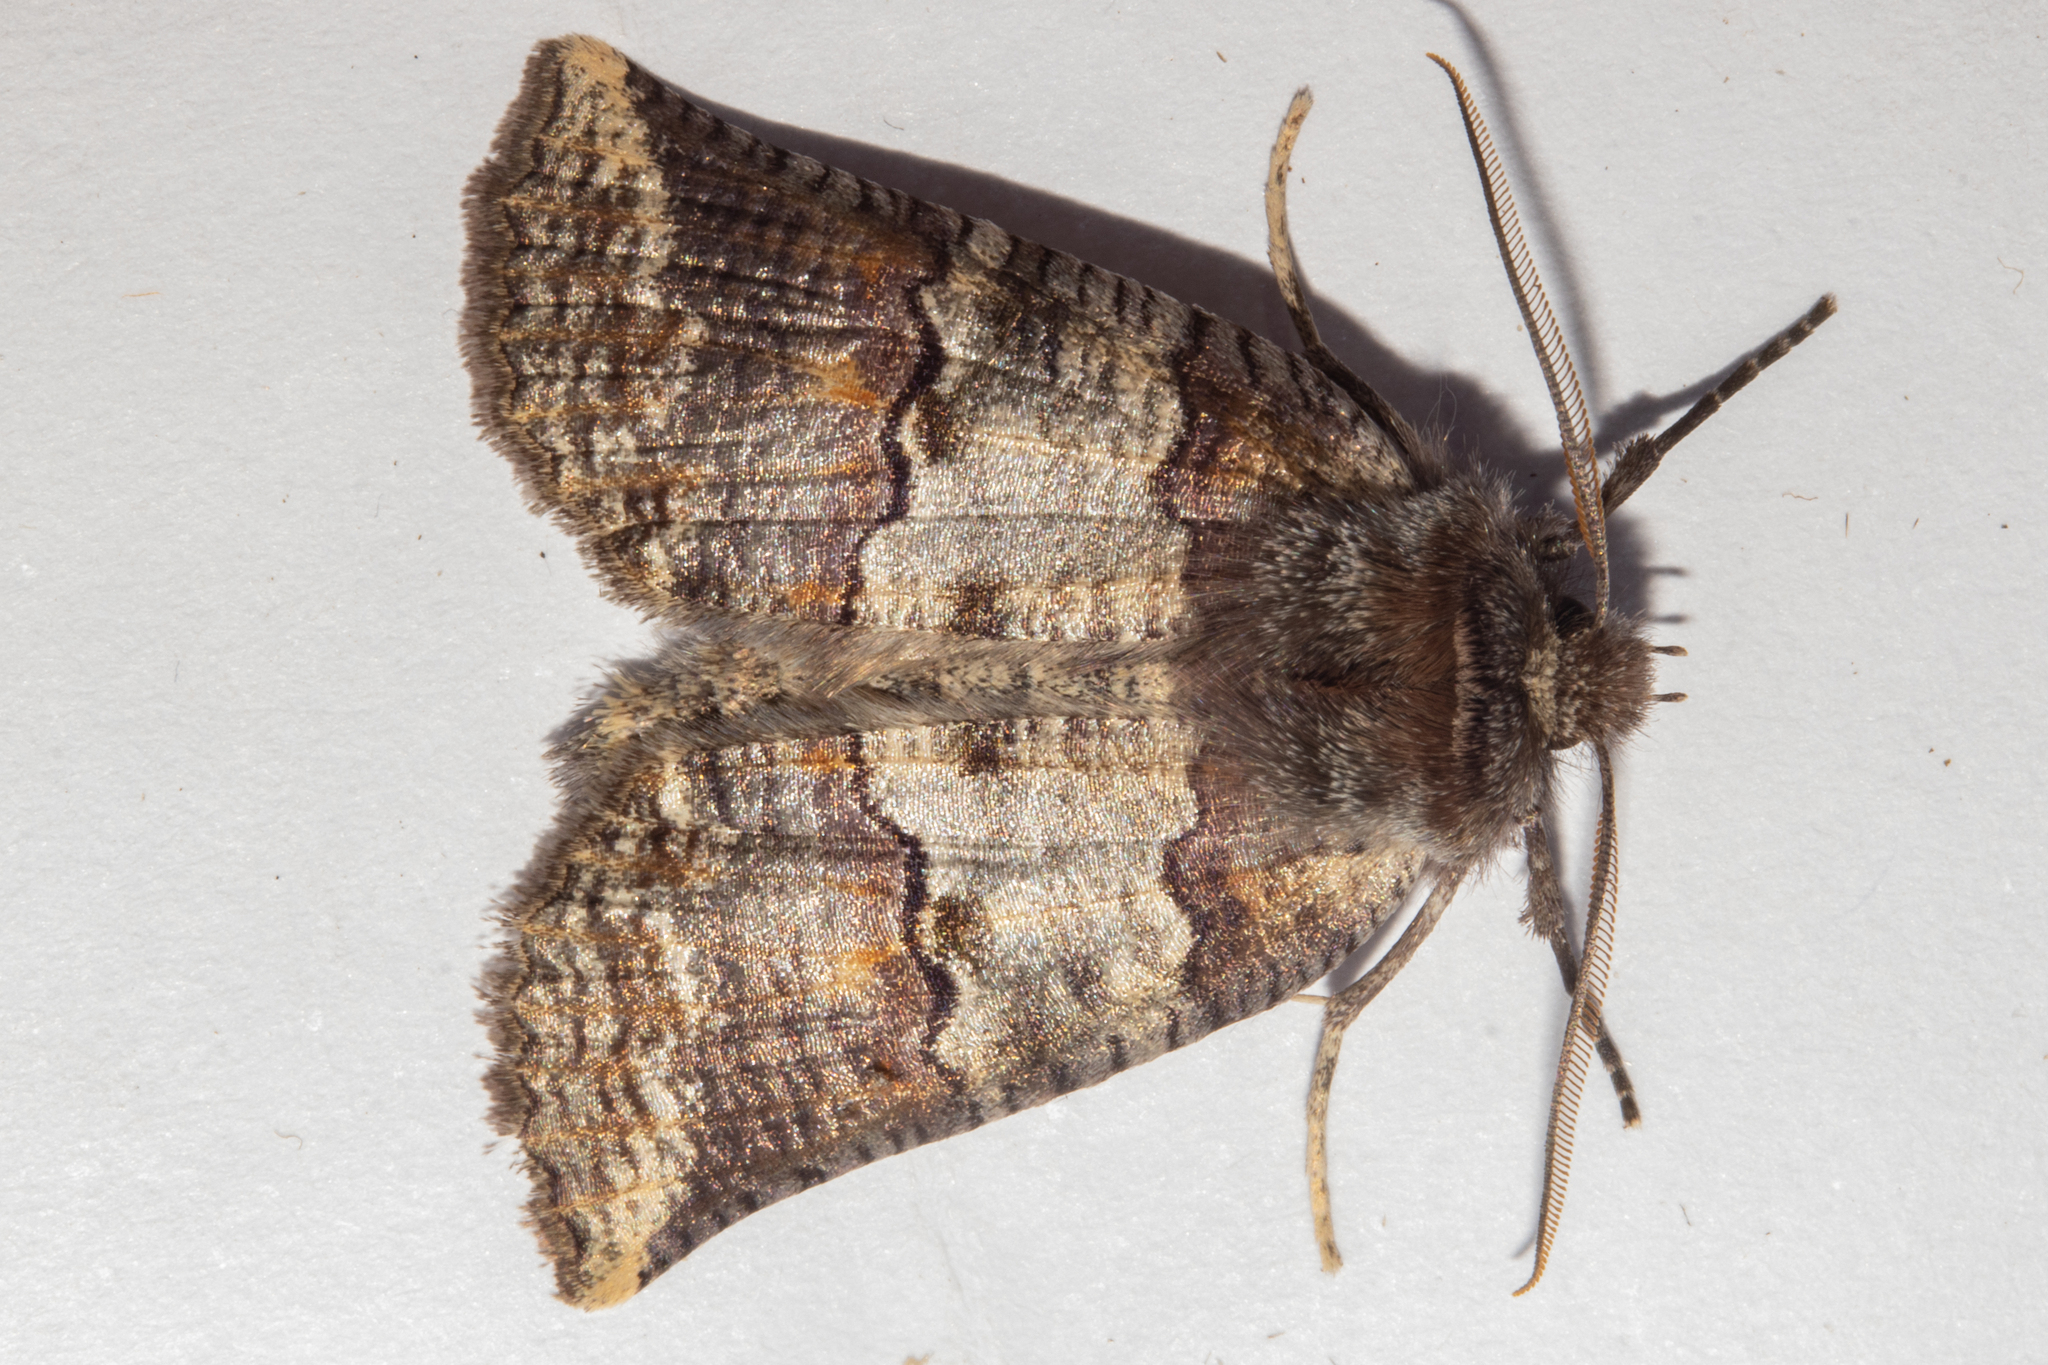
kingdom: Animalia
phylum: Arthropoda
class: Insecta
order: Lepidoptera
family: Geometridae
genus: Declana
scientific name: Declana
